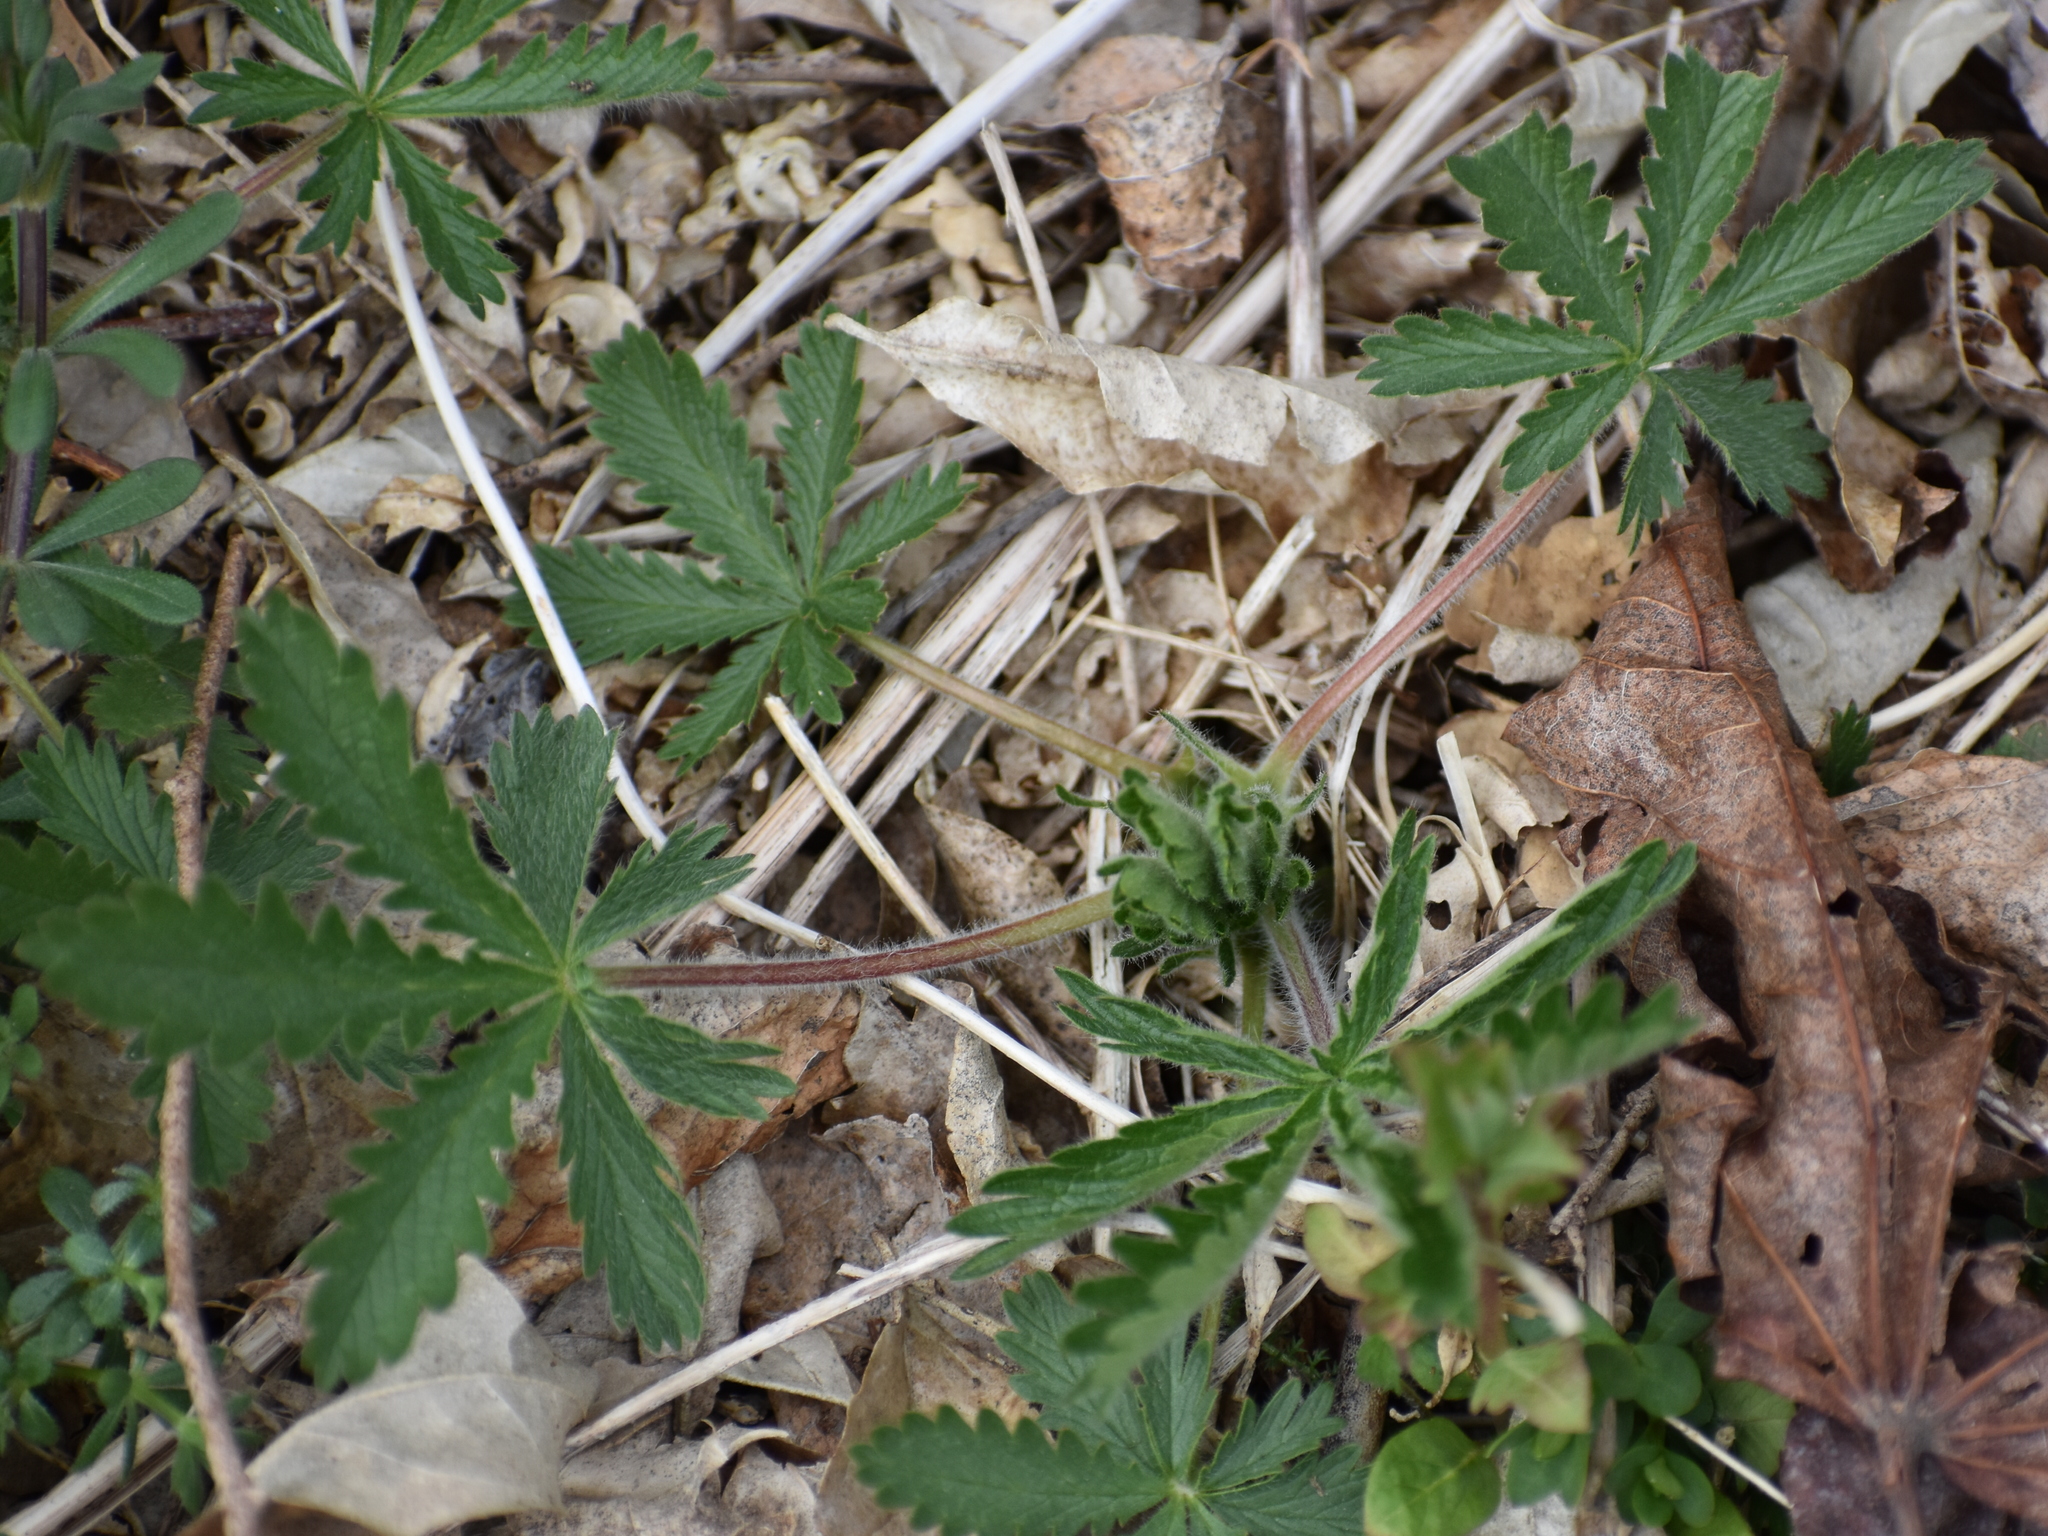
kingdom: Plantae
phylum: Tracheophyta
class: Magnoliopsida
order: Rosales
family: Rosaceae
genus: Potentilla
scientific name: Potentilla recta
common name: Sulphur cinquefoil
